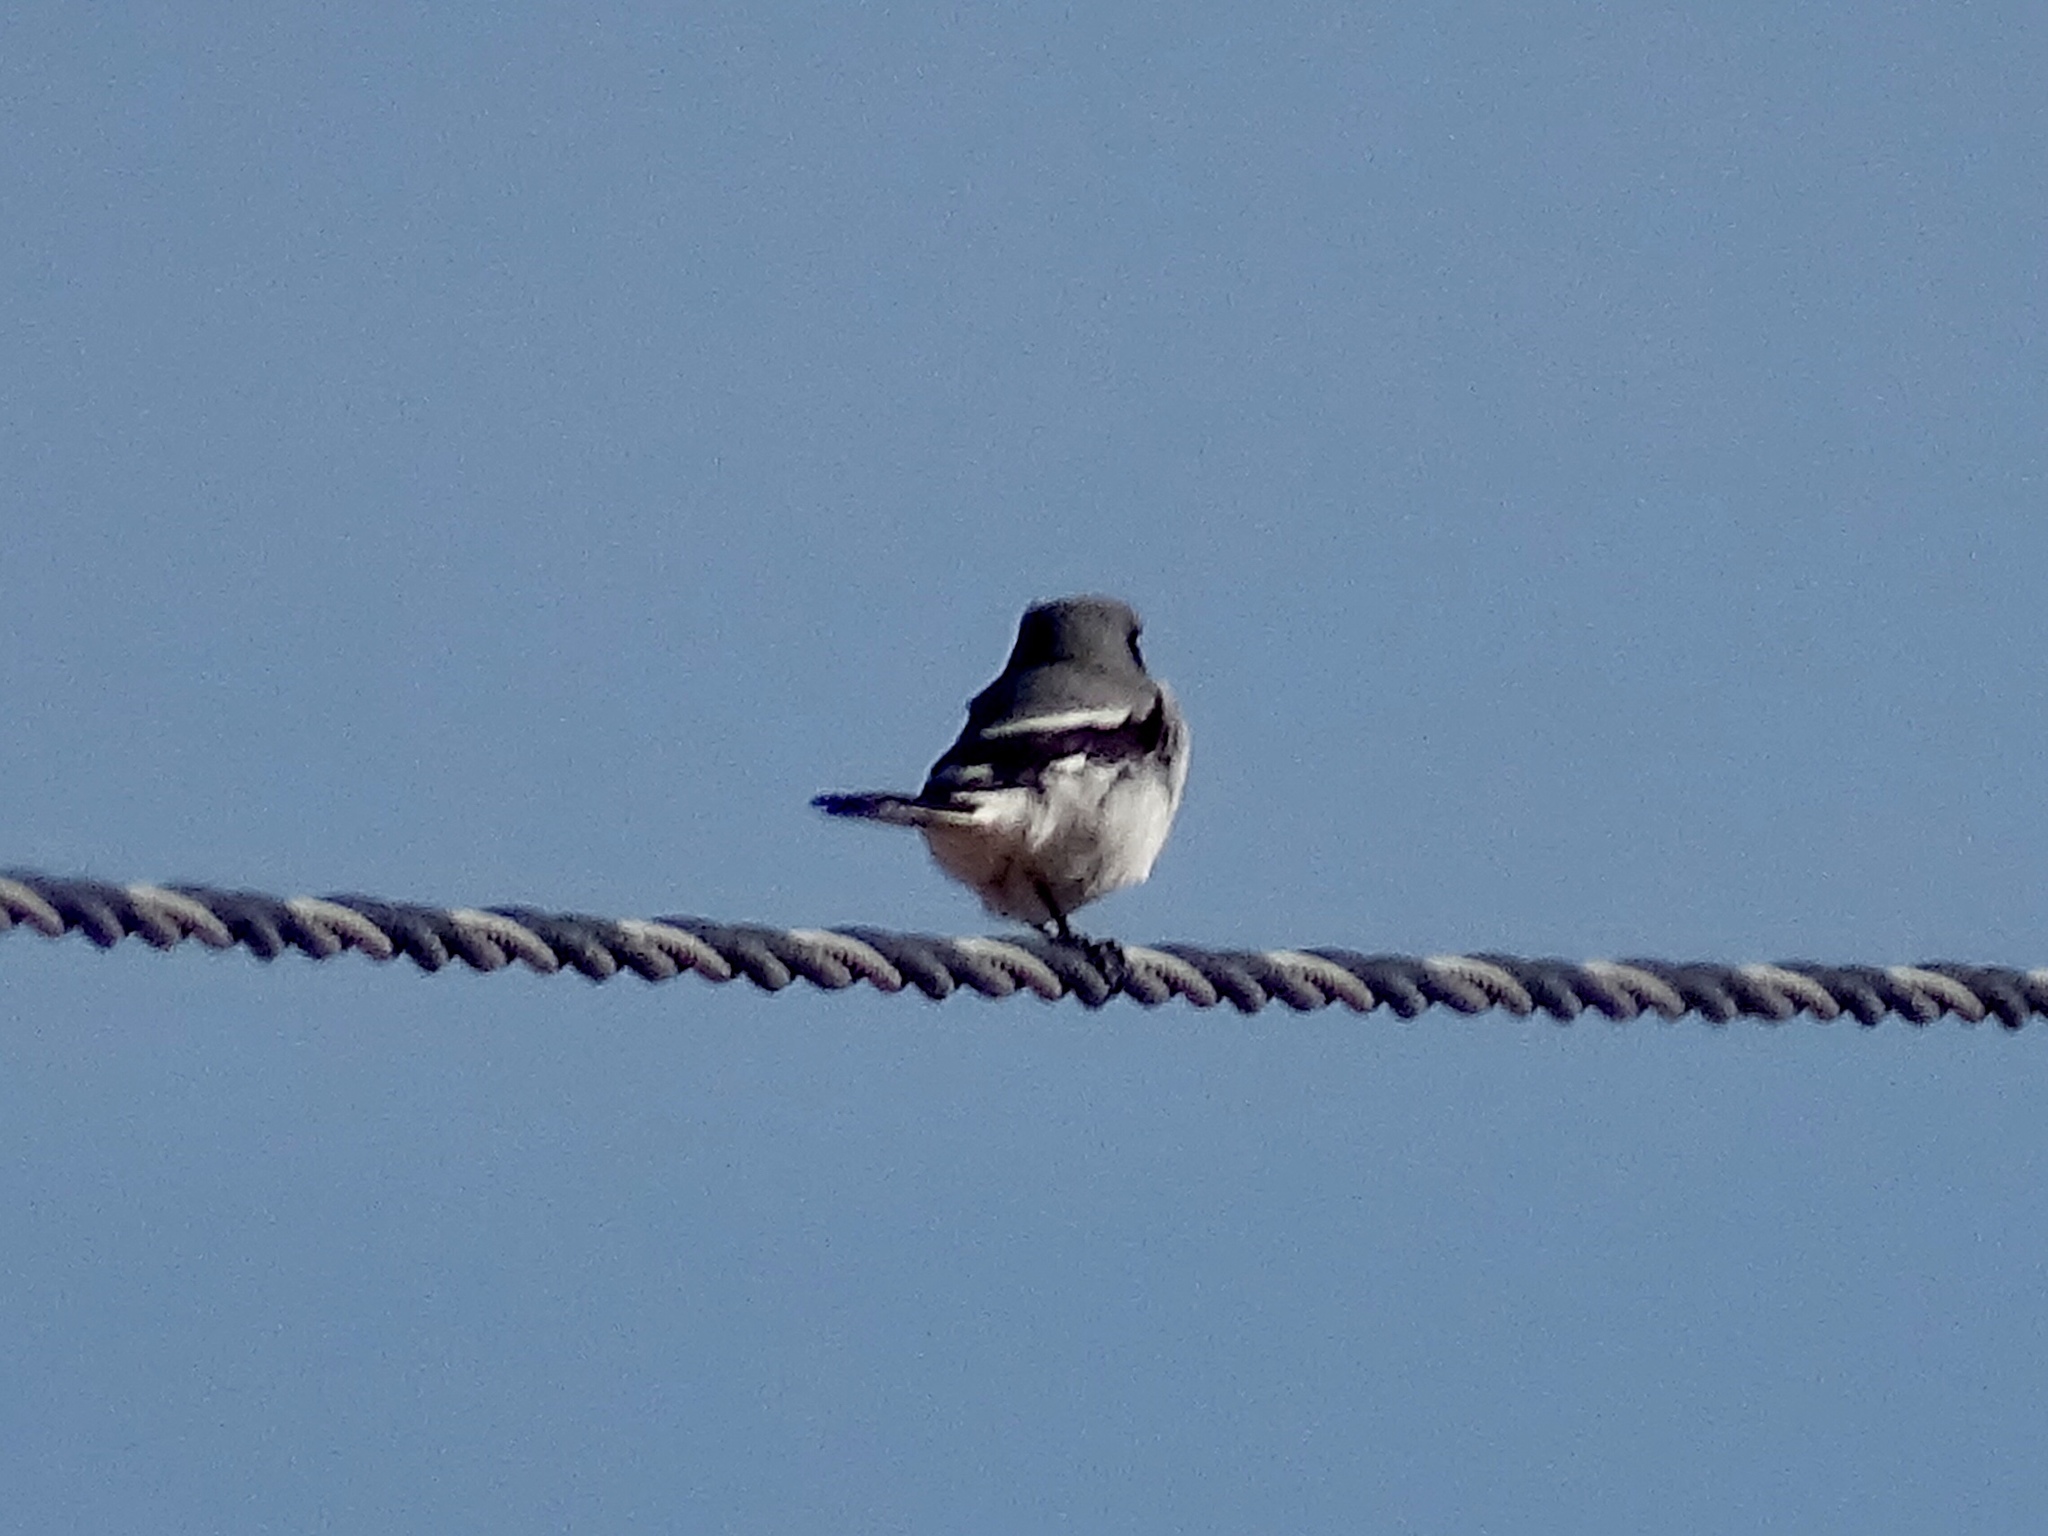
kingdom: Animalia
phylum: Chordata
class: Aves
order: Passeriformes
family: Laniidae
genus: Lanius
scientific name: Lanius ludovicianus
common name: Loggerhead shrike
